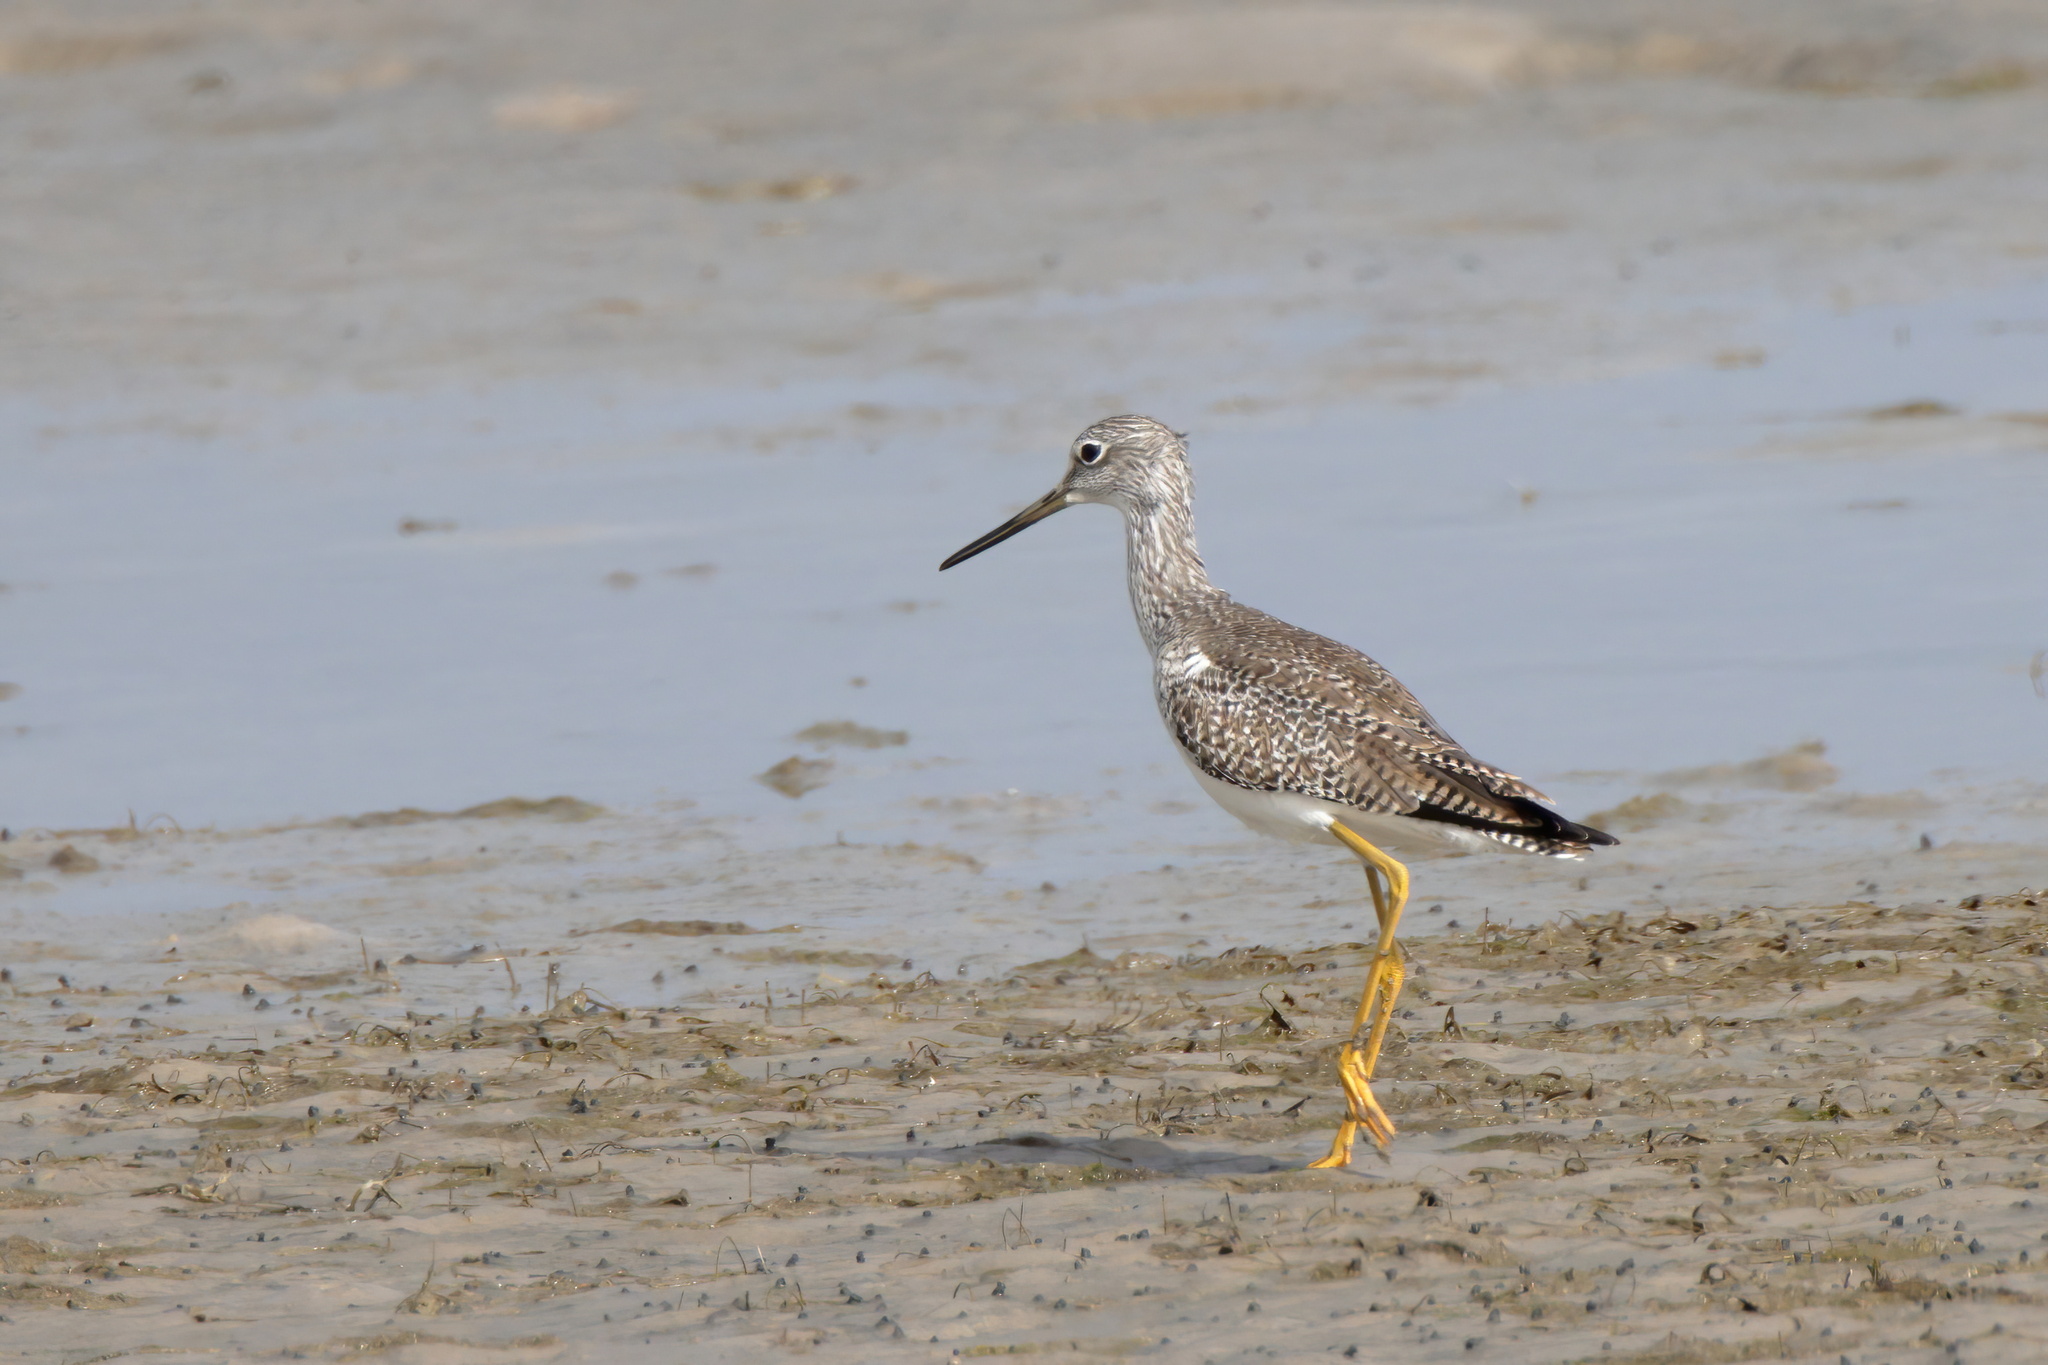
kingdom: Animalia
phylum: Chordata
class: Aves
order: Charadriiformes
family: Scolopacidae
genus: Tringa
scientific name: Tringa melanoleuca
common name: Greater yellowlegs
